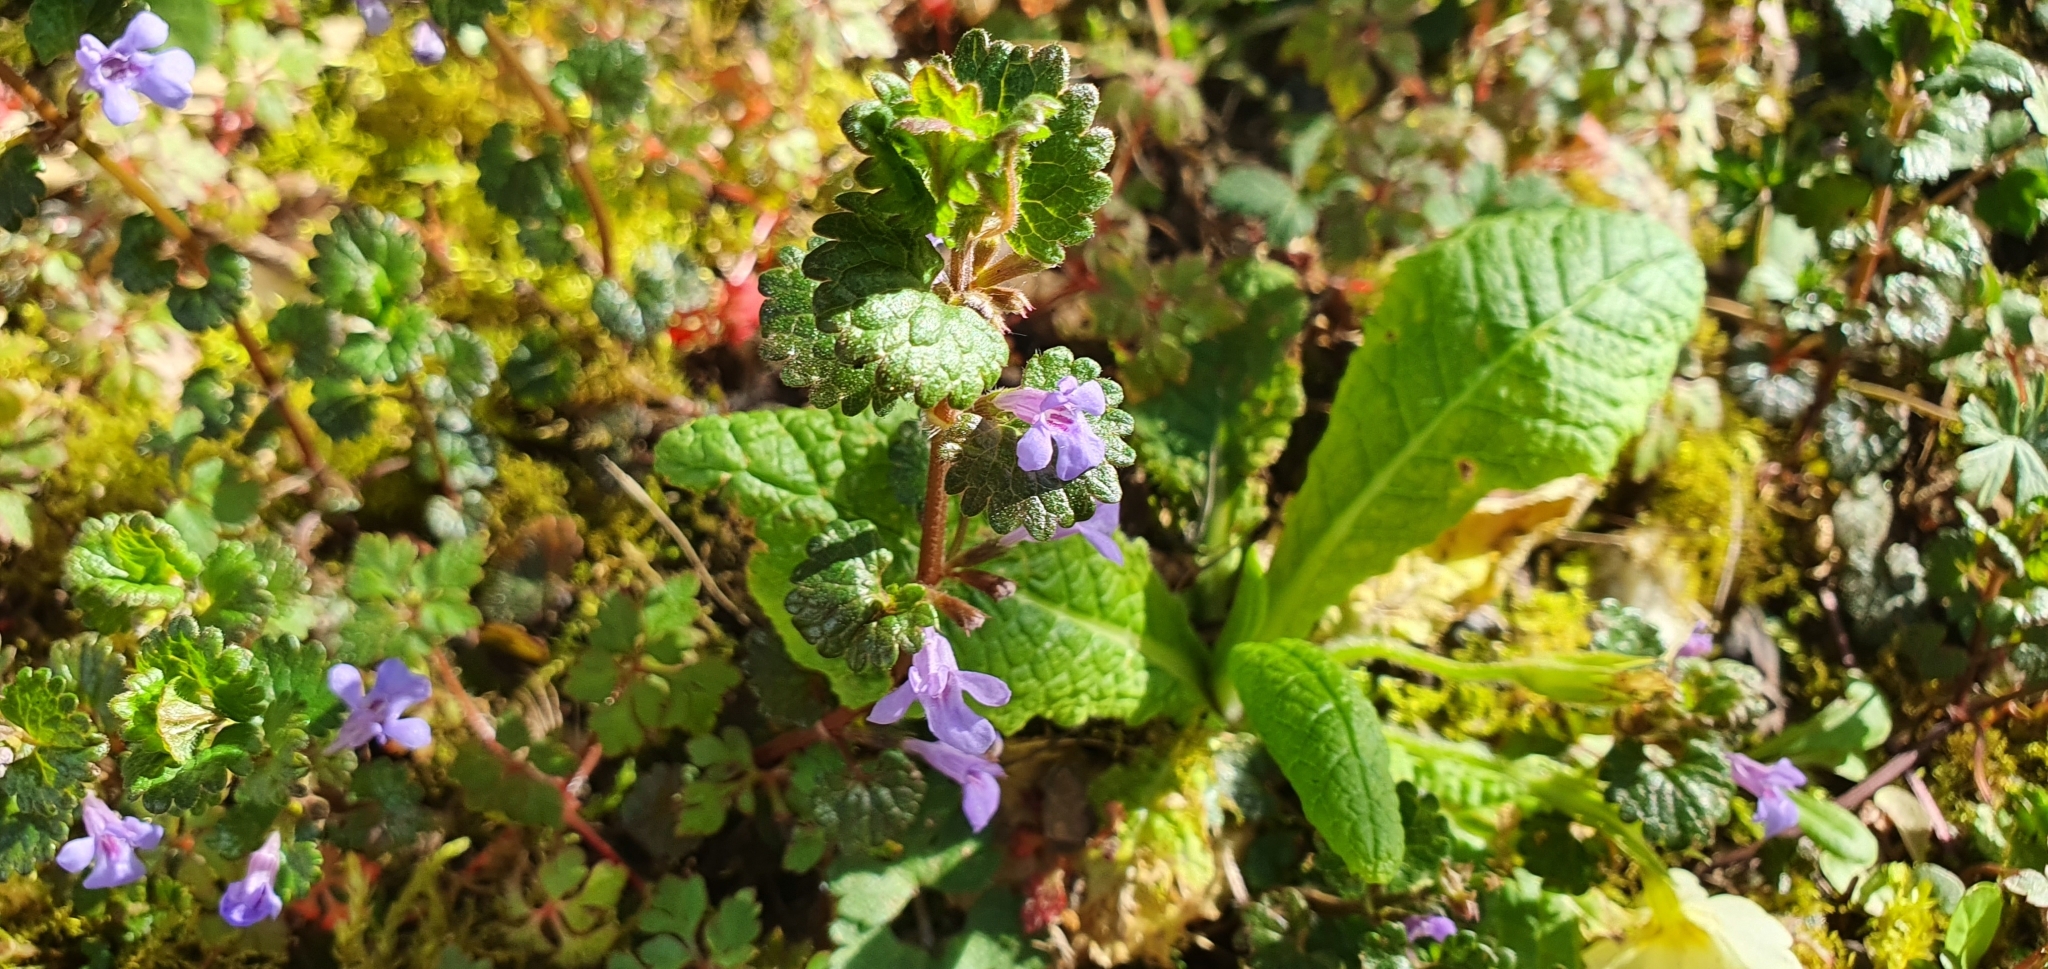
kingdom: Plantae
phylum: Tracheophyta
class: Magnoliopsida
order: Lamiales
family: Lamiaceae
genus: Glechoma
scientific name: Glechoma hederacea
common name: Ground ivy
